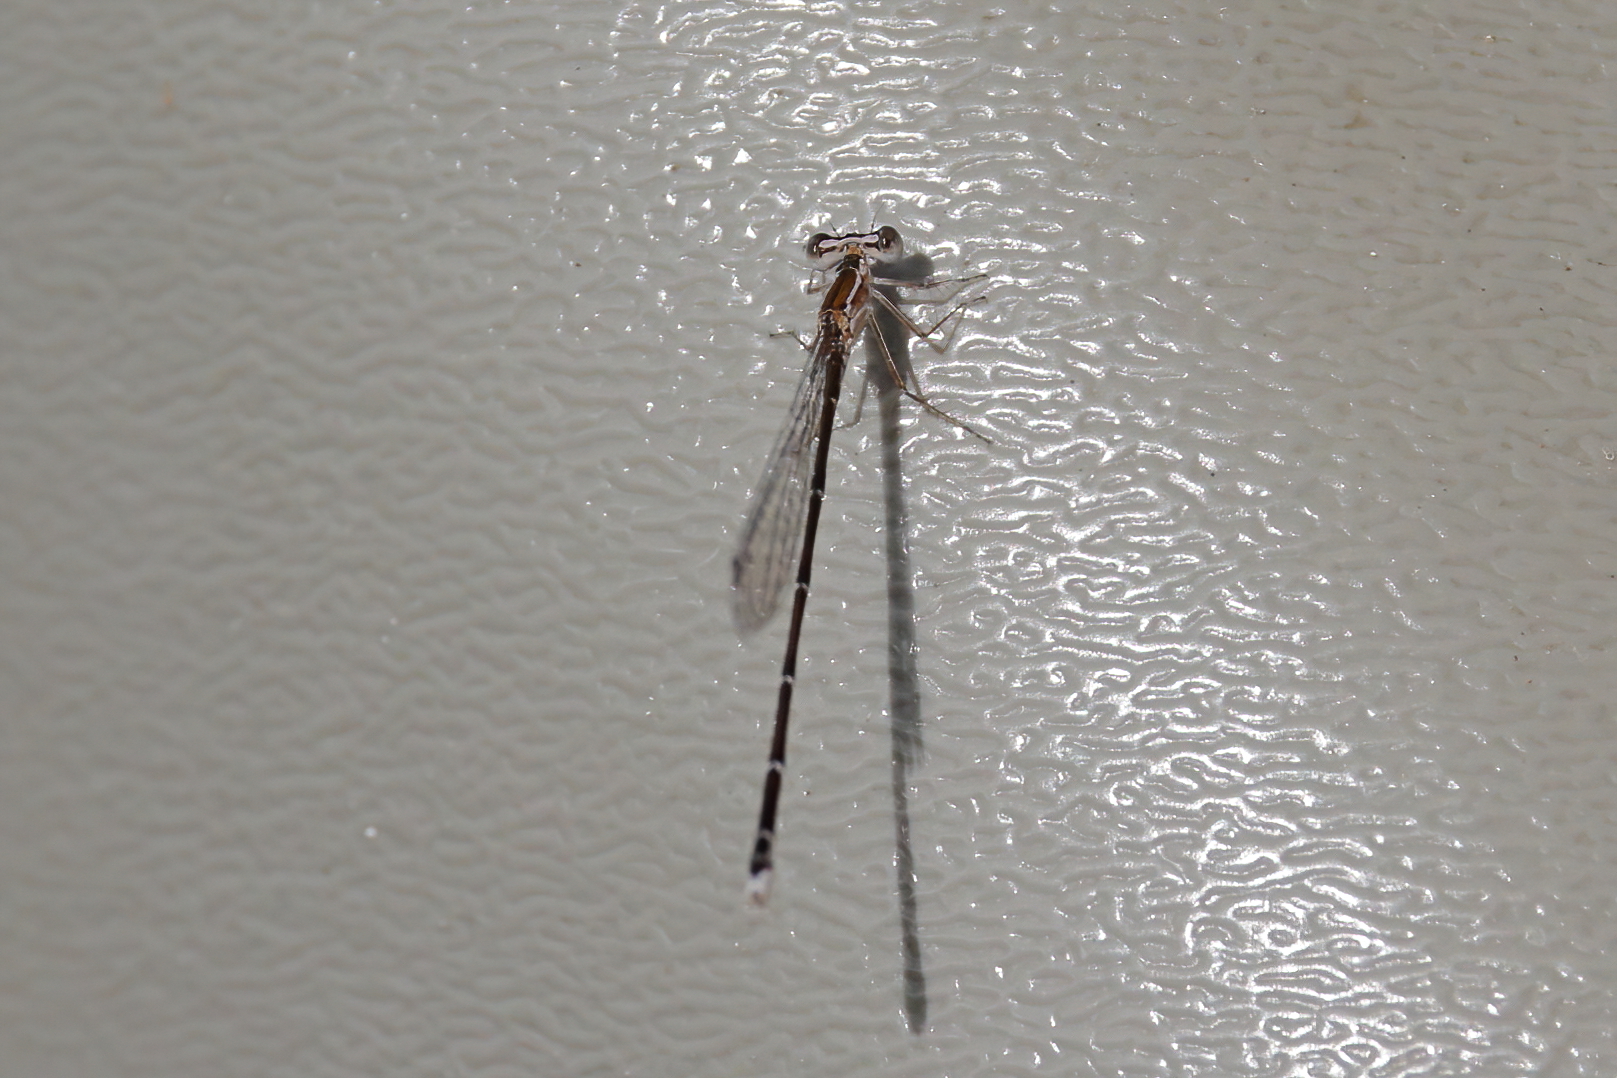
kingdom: Animalia
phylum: Arthropoda
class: Insecta
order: Odonata
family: Coenagrionidae
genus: Nehalennia
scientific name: Nehalennia pallidula
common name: Everglades sprite
